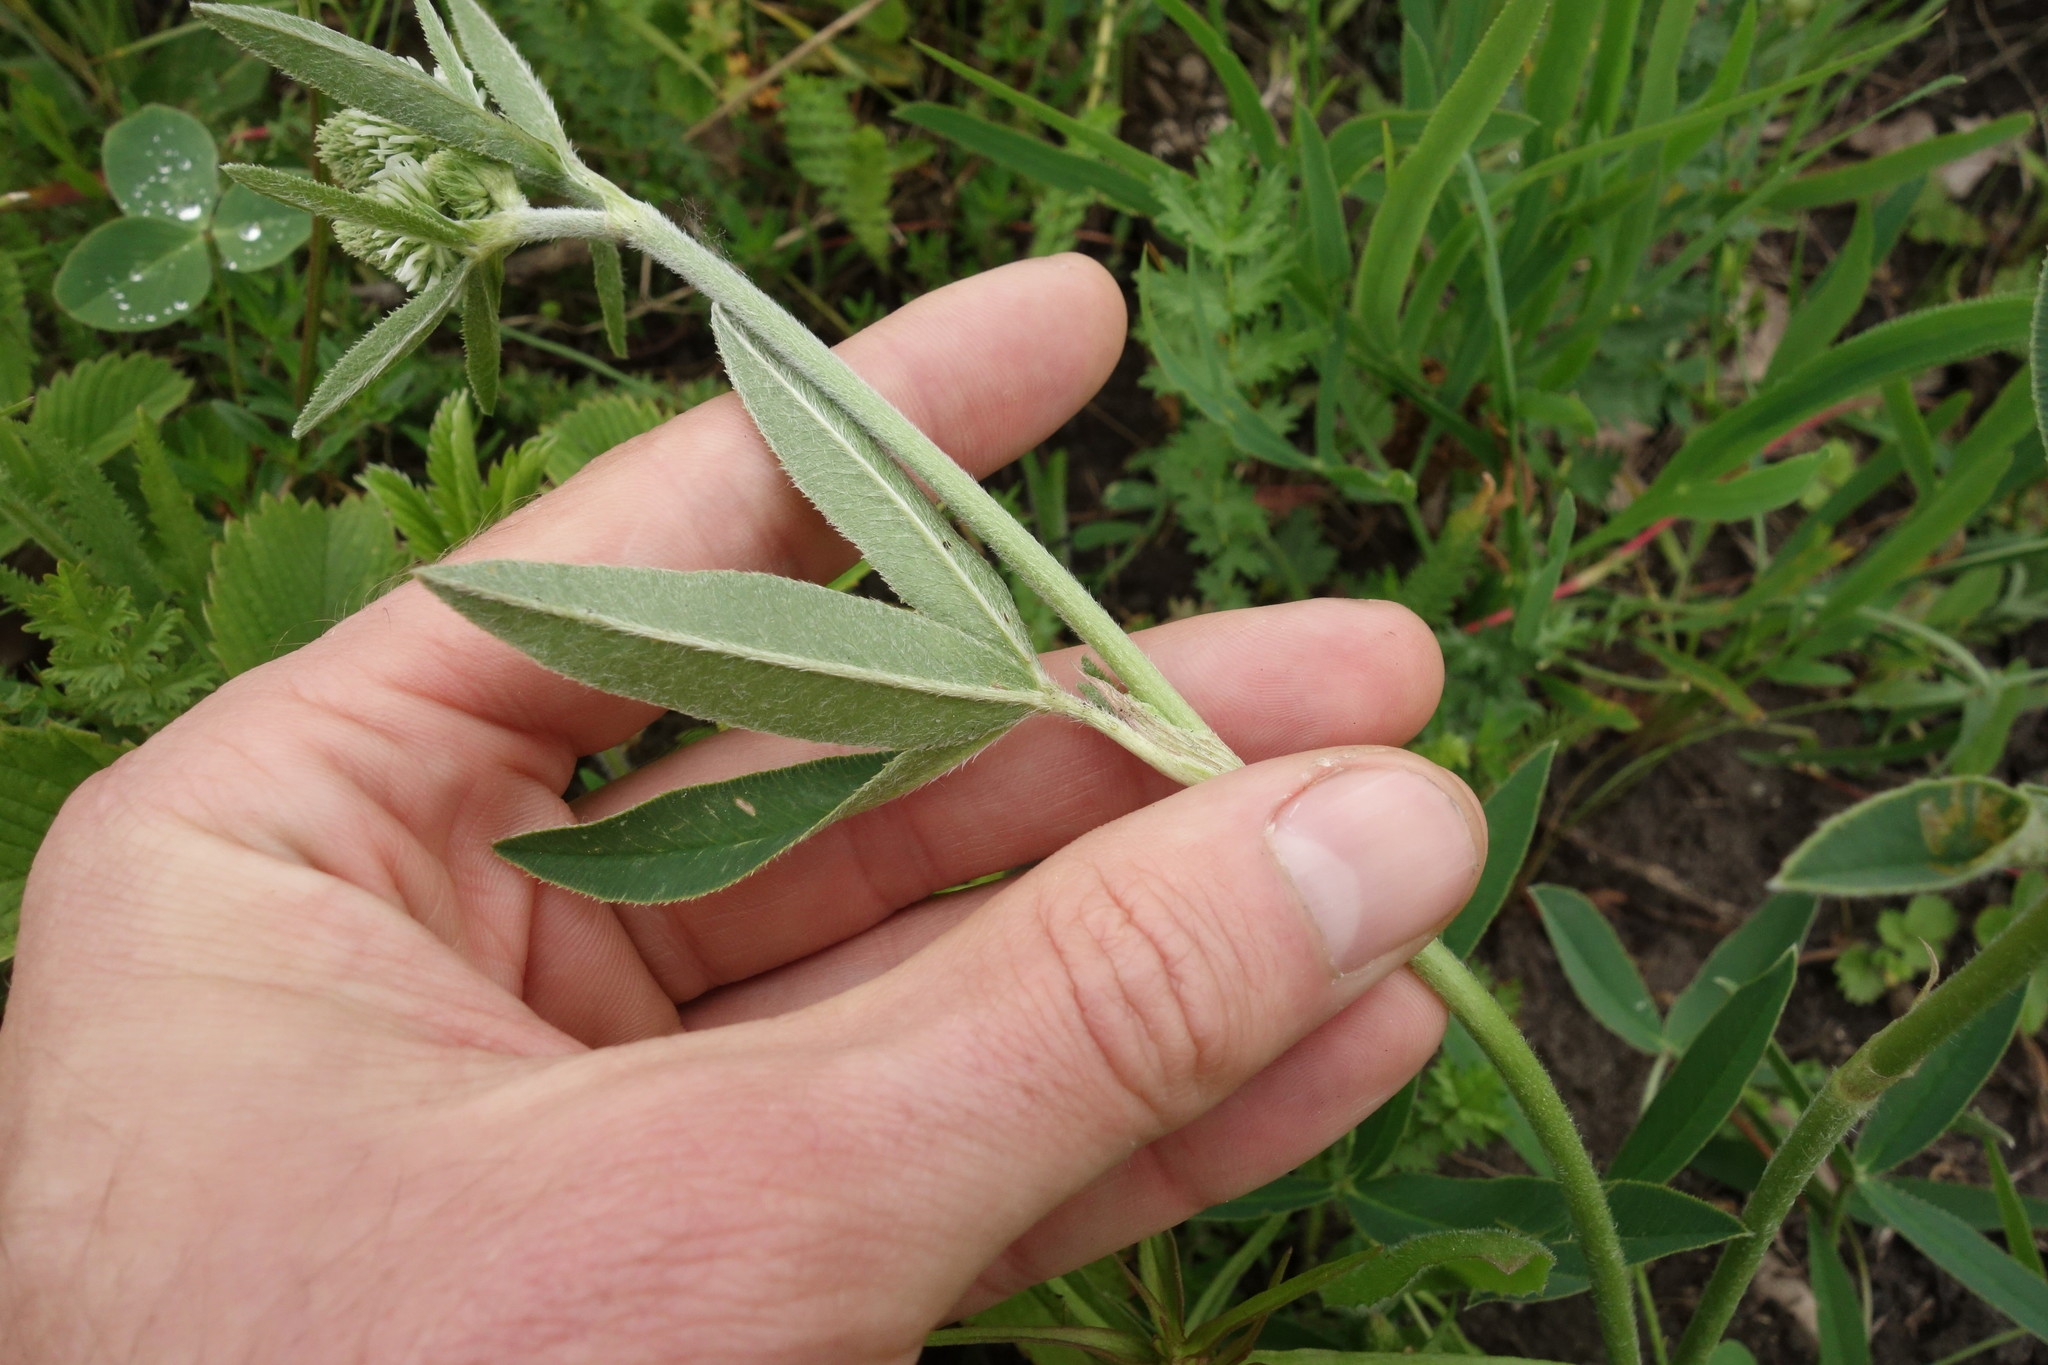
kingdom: Plantae
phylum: Tracheophyta
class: Magnoliopsida
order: Fabales
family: Fabaceae
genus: Trifolium
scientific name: Trifolium montanum
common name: Mountain clover
